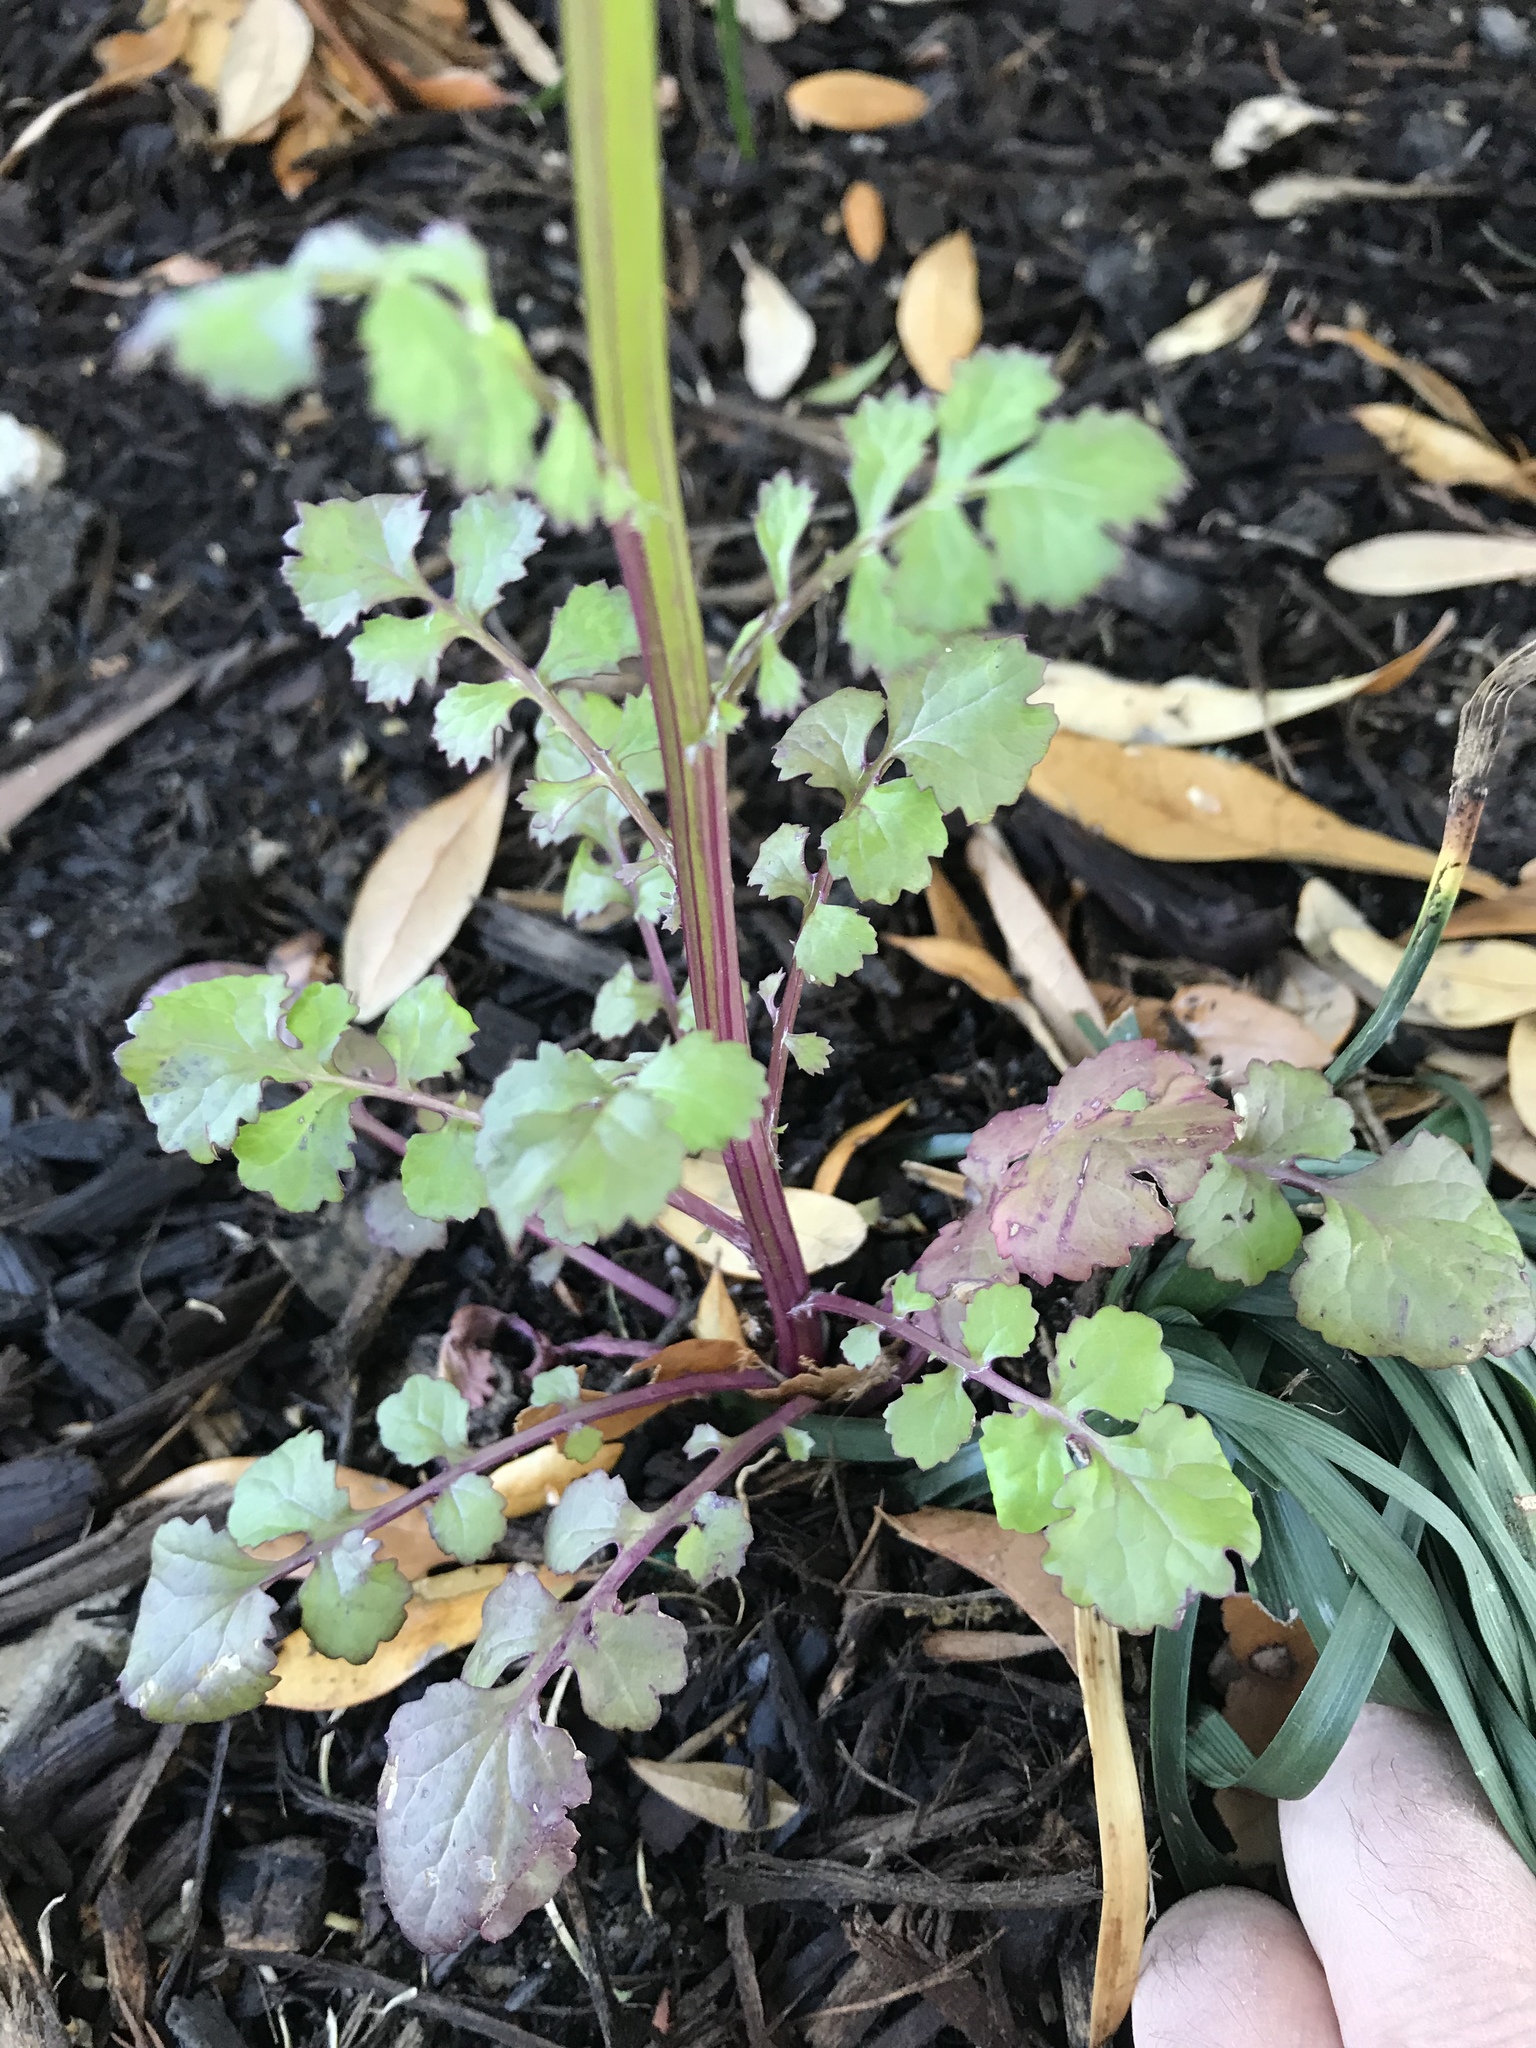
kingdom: Plantae
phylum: Tracheophyta
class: Magnoliopsida
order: Asterales
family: Asteraceae
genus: Packera
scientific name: Packera glabella
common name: Butterweed
